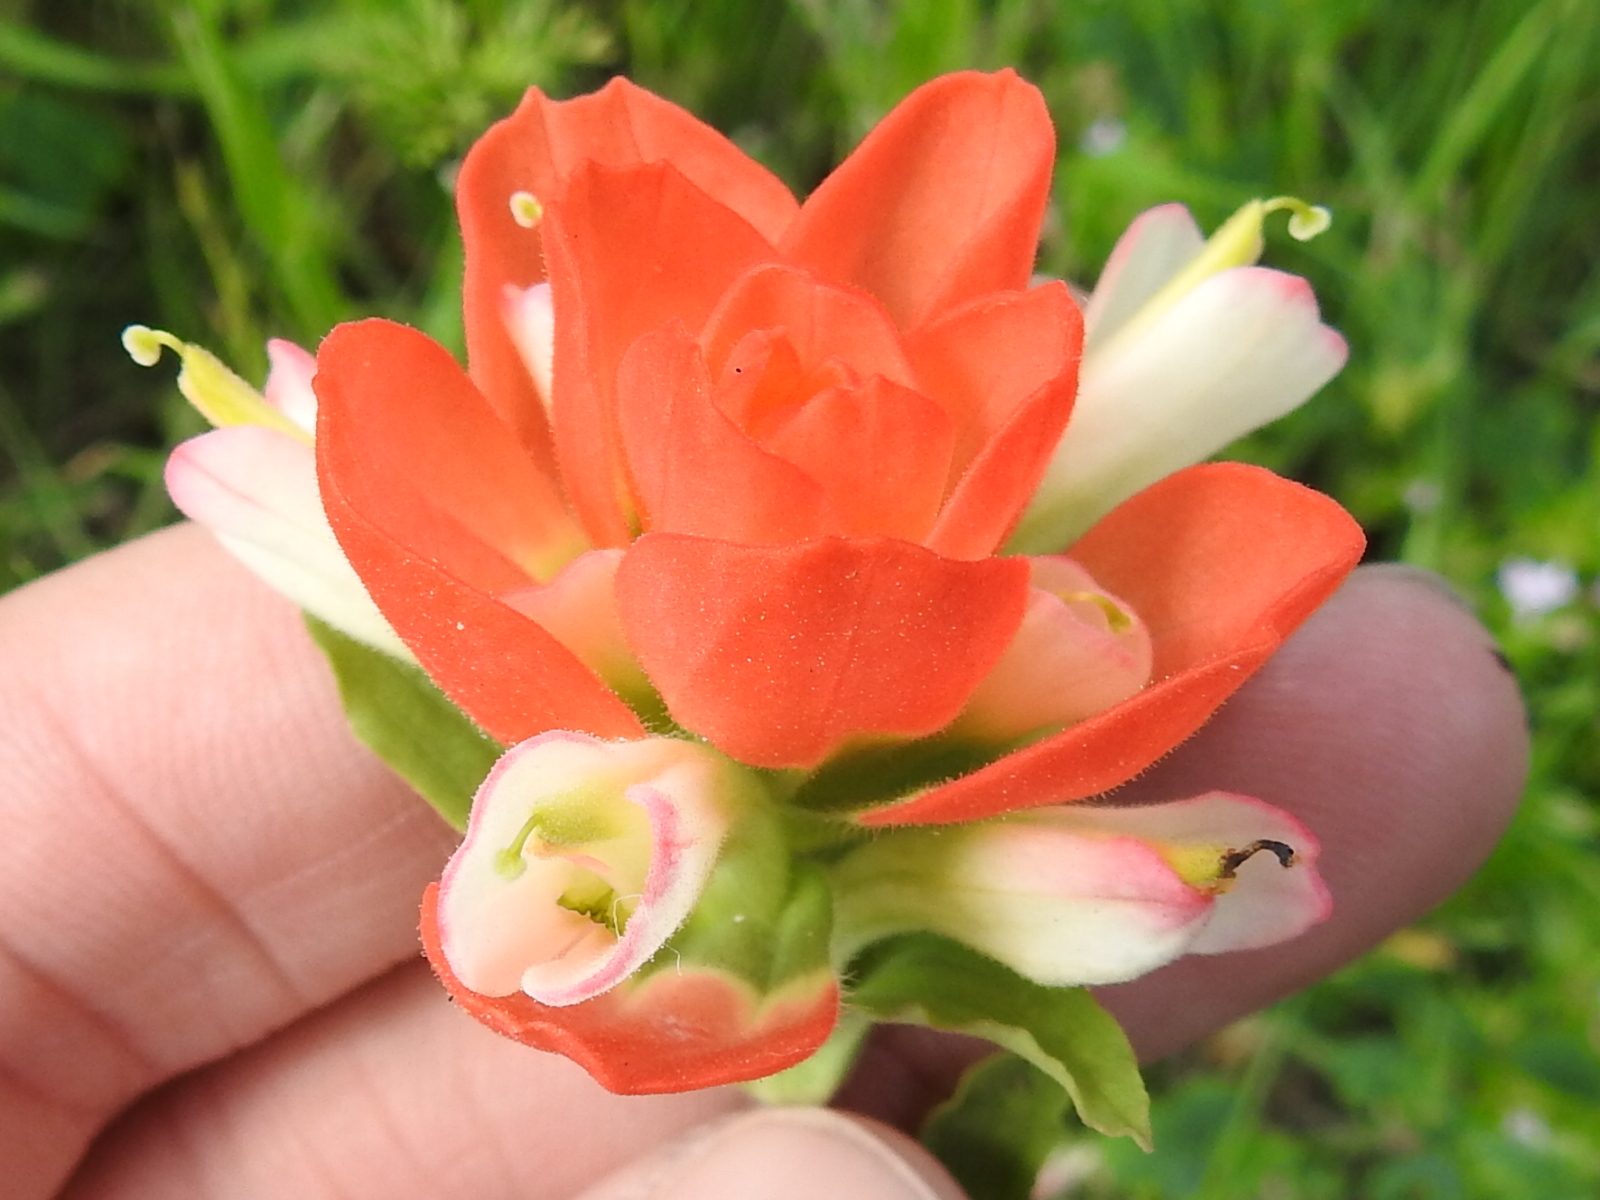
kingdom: Plantae
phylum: Tracheophyta
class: Magnoliopsida
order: Lamiales
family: Orobanchaceae
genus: Castilleja
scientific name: Castilleja indivisa
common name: Texas paintbrush
